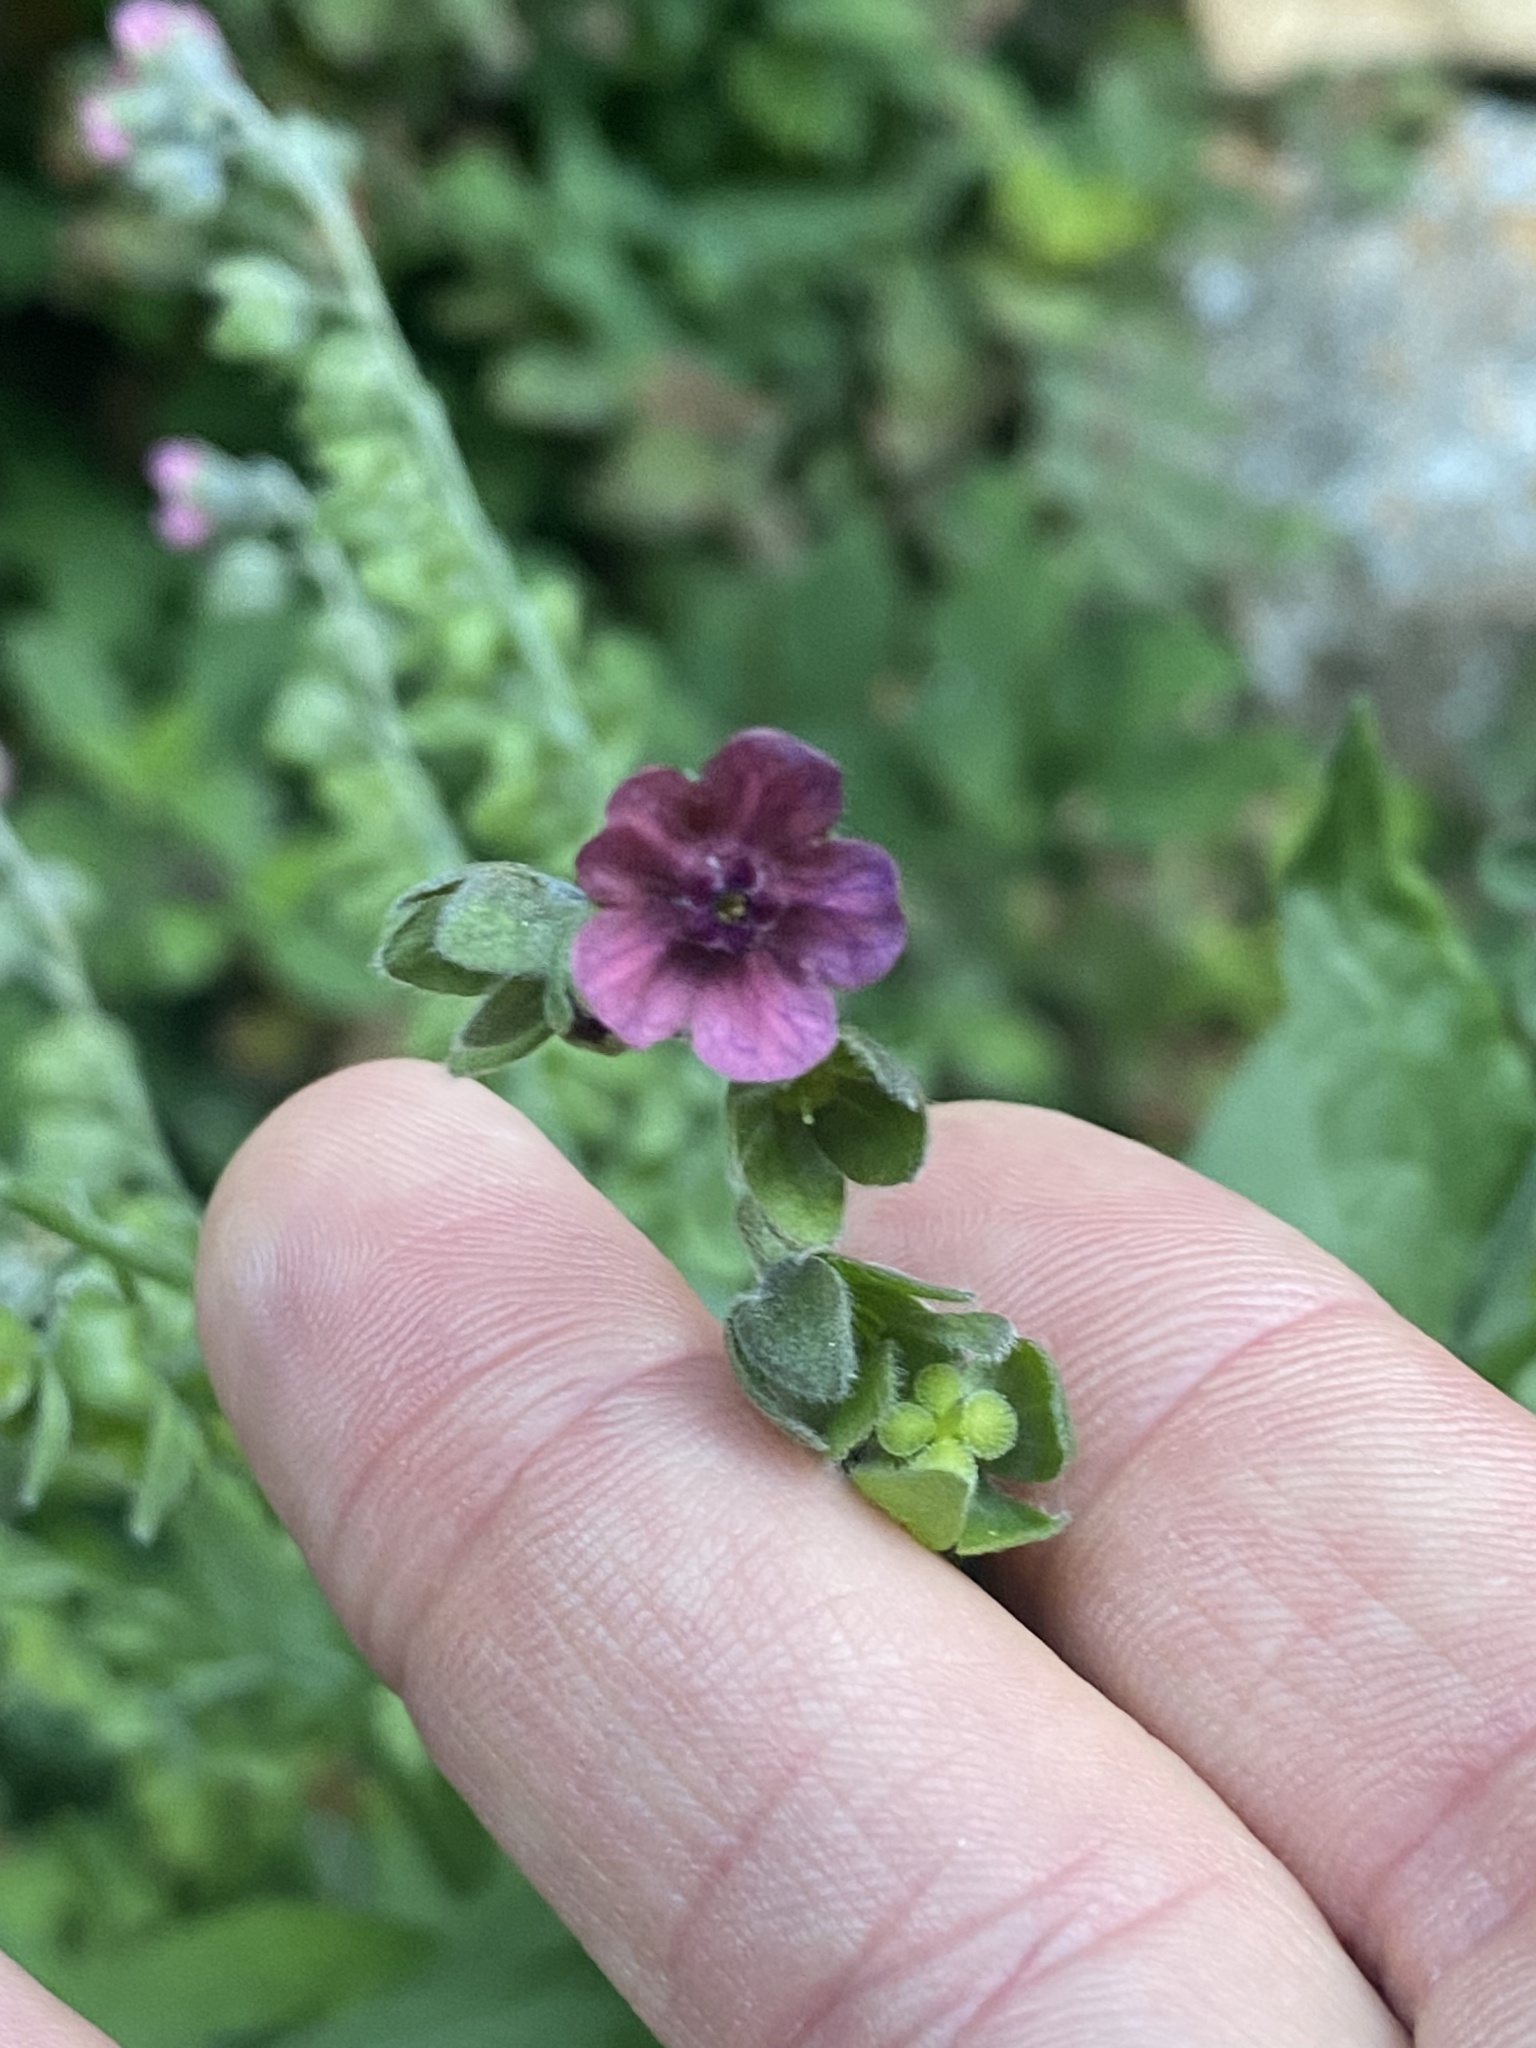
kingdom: Plantae
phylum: Tracheophyta
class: Magnoliopsida
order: Boraginales
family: Boraginaceae
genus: Cynoglossum
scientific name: Cynoglossum officinale
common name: Hound's-tongue
